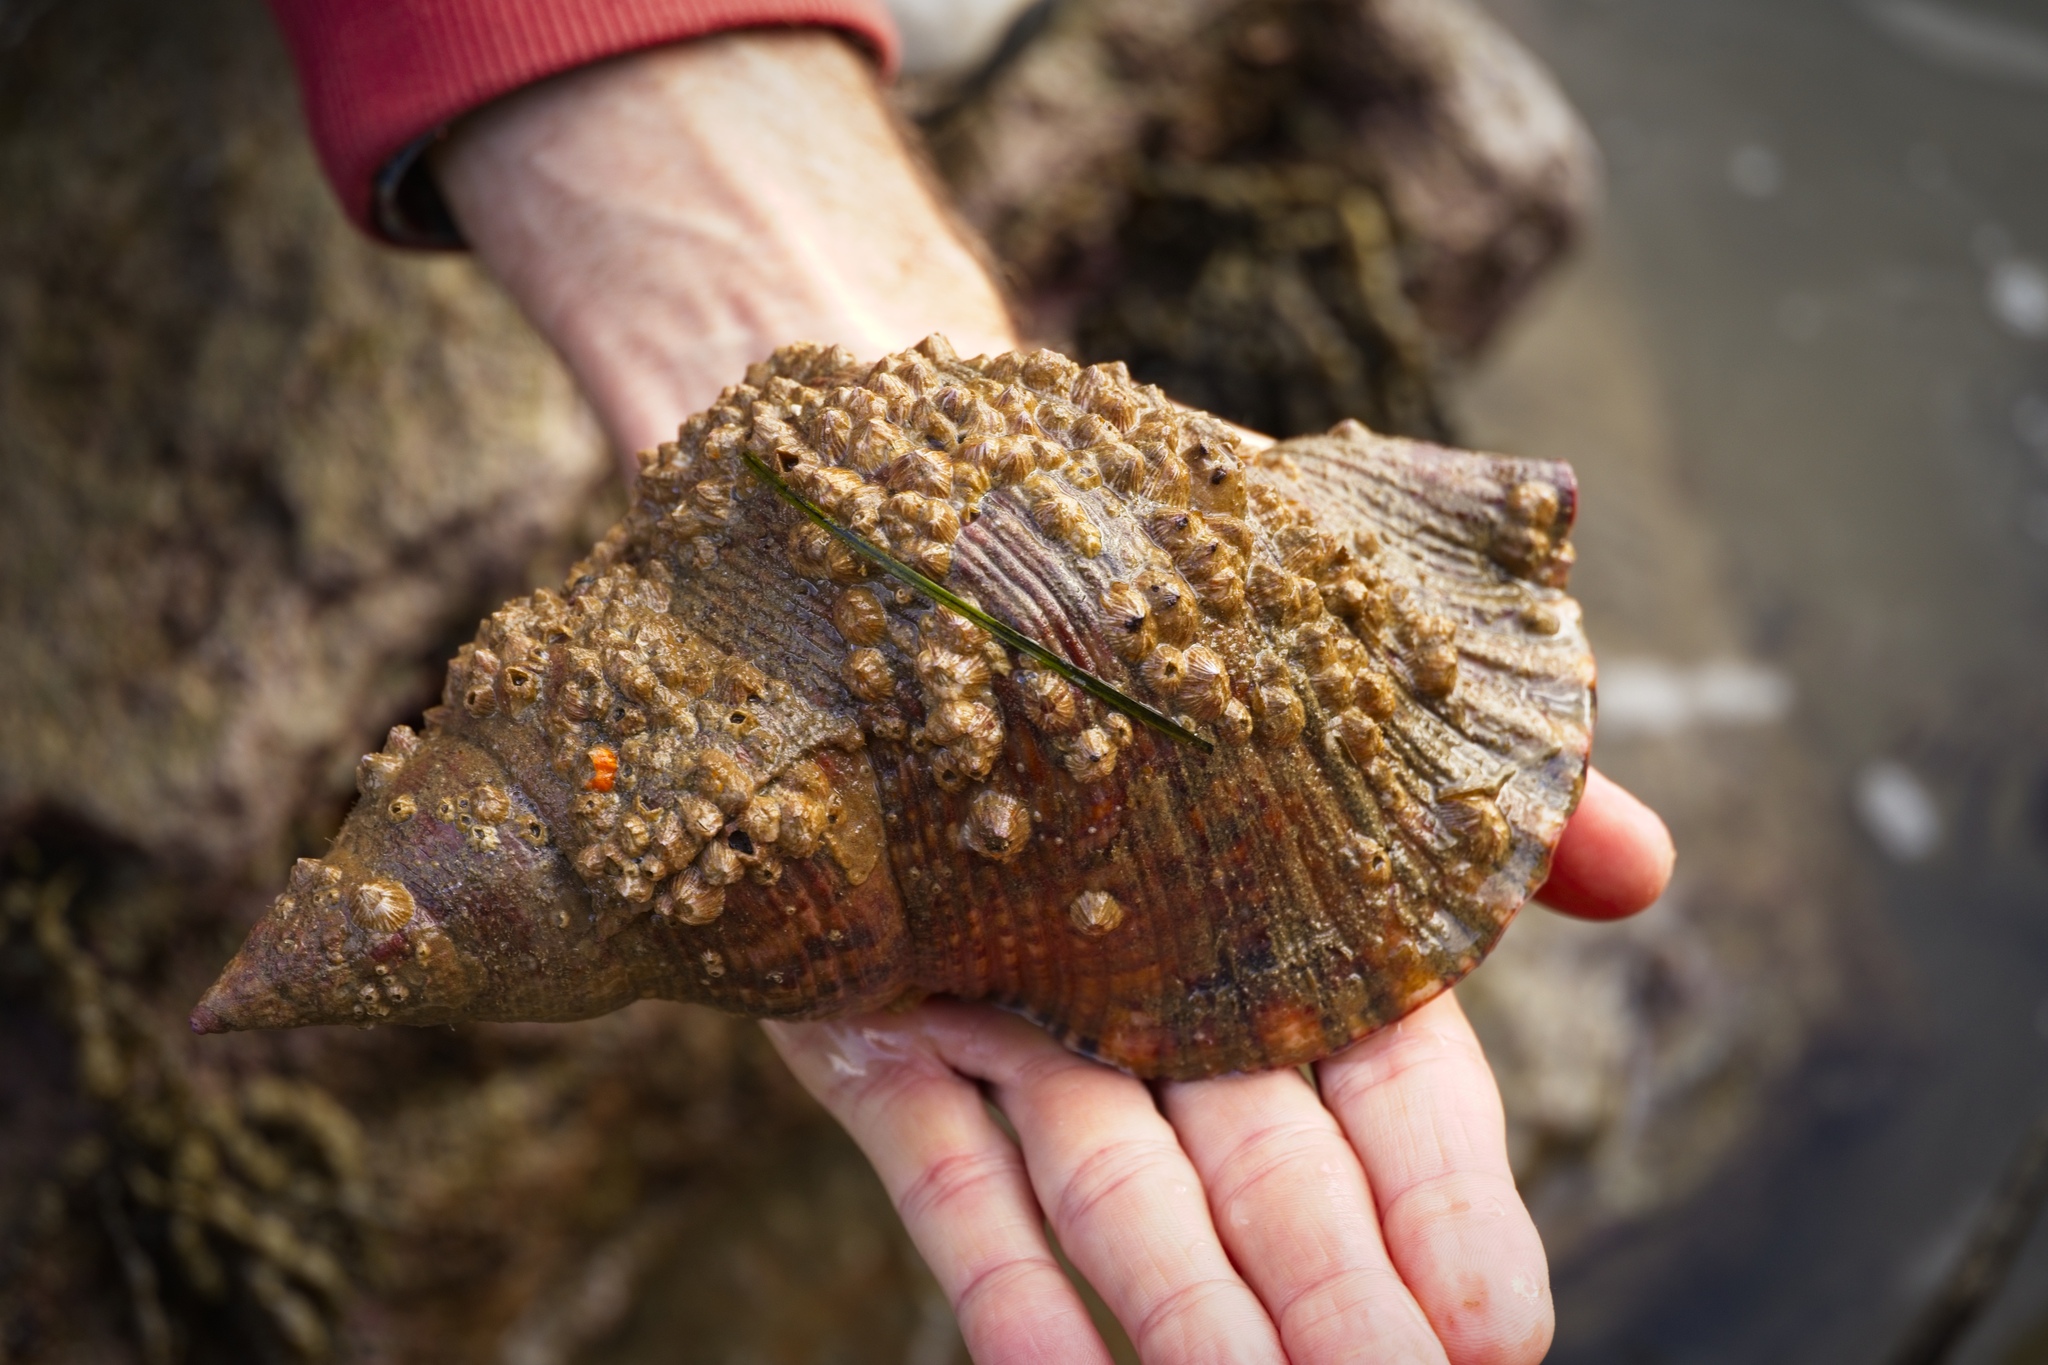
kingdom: Animalia
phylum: Mollusca
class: Gastropoda
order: Littorinimorpha
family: Charoniidae
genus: Charonia
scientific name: Charonia lampas
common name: Knobbed triton
